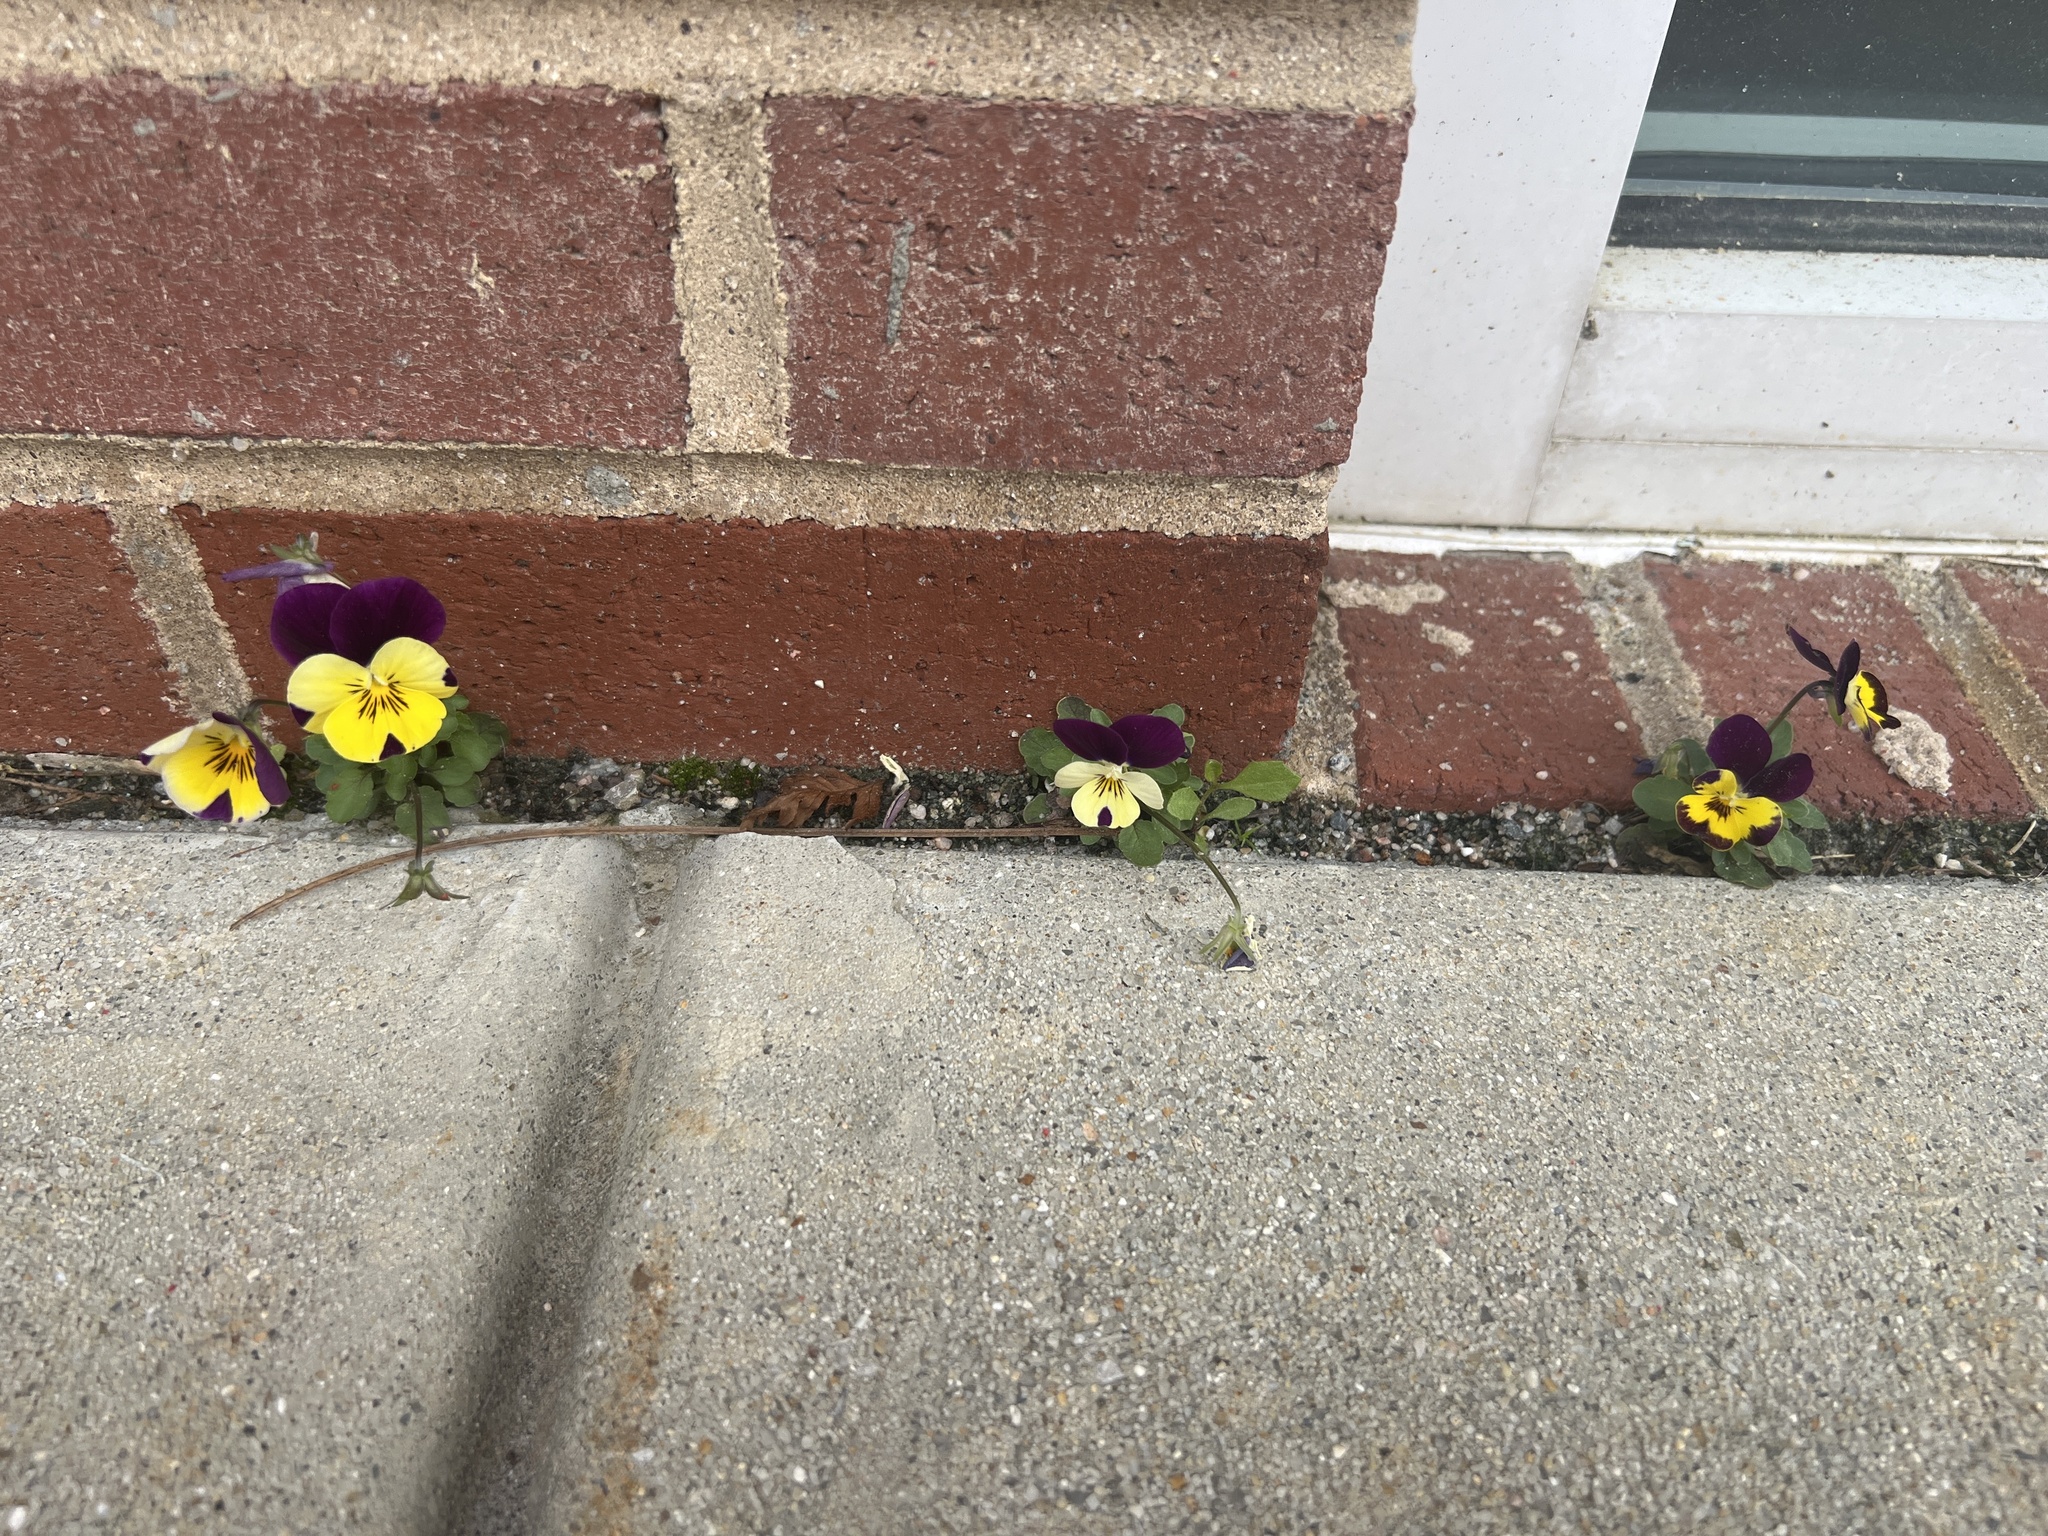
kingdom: Plantae
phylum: Tracheophyta
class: Magnoliopsida
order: Malpighiales
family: Violaceae
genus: Viola
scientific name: Viola williamsii
